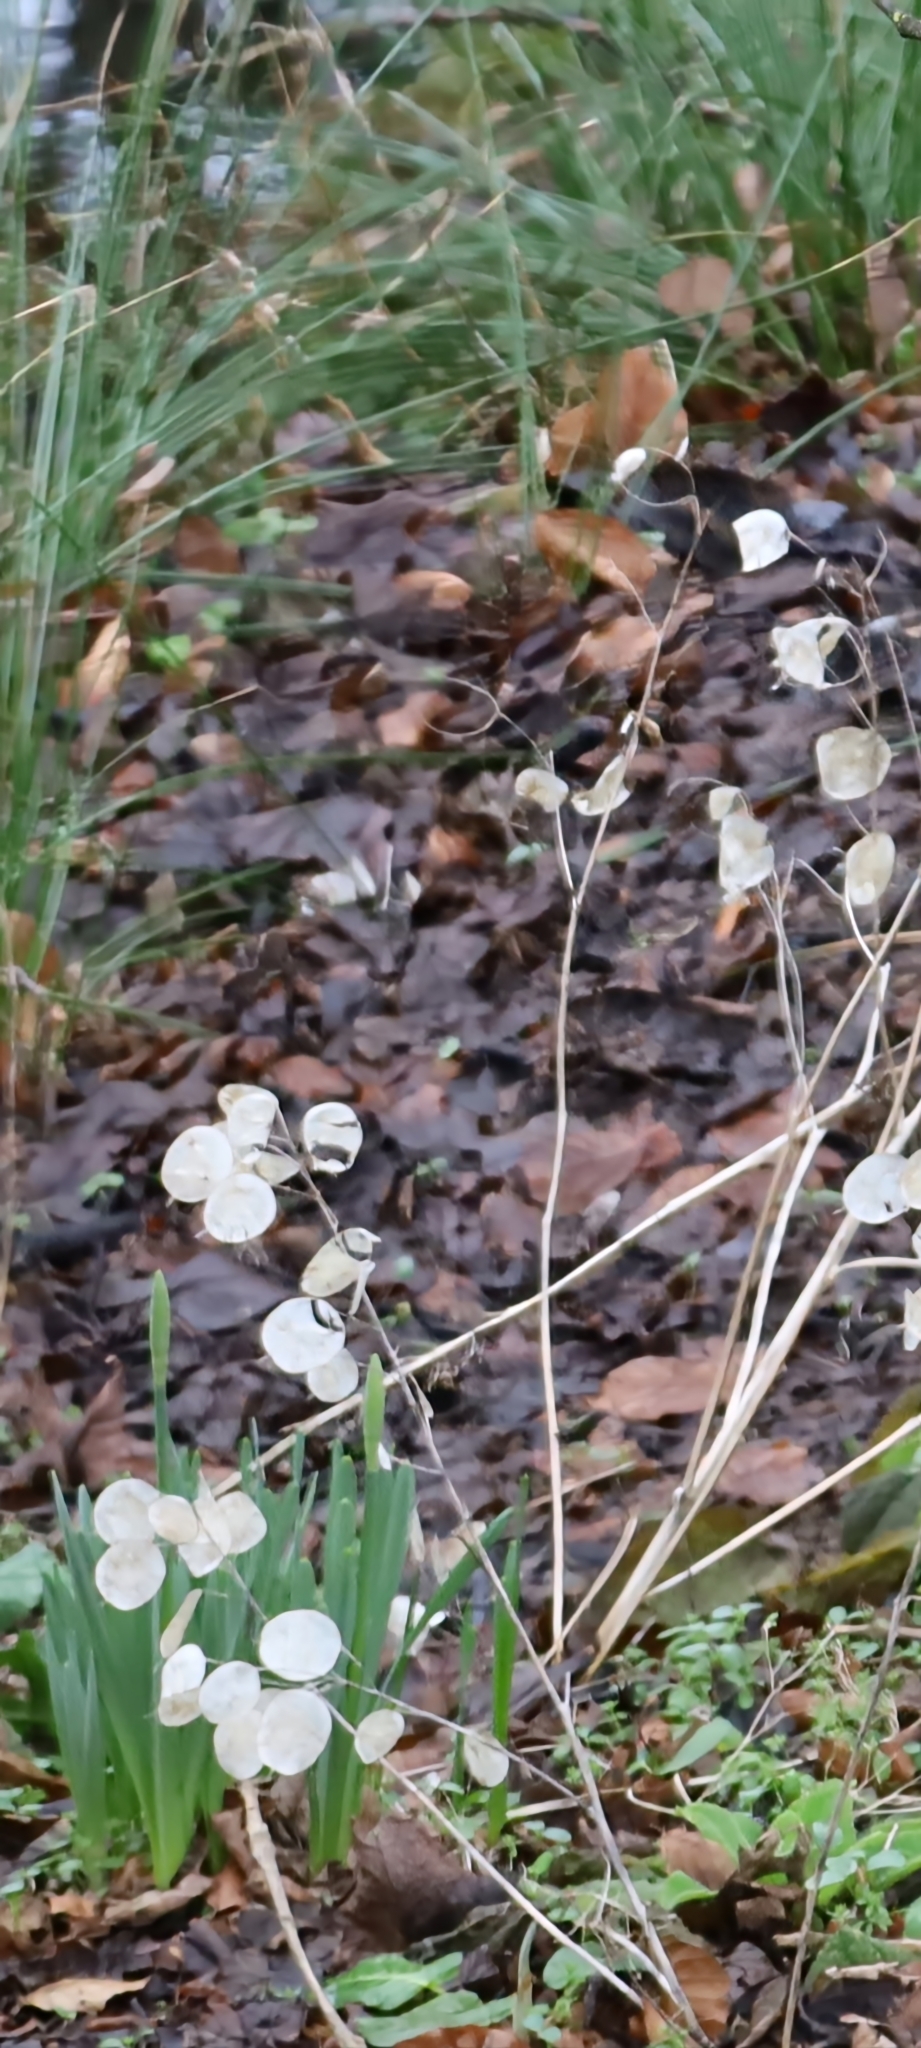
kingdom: Plantae
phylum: Tracheophyta
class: Magnoliopsida
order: Brassicales
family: Brassicaceae
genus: Lunaria
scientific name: Lunaria annua
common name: Honesty
